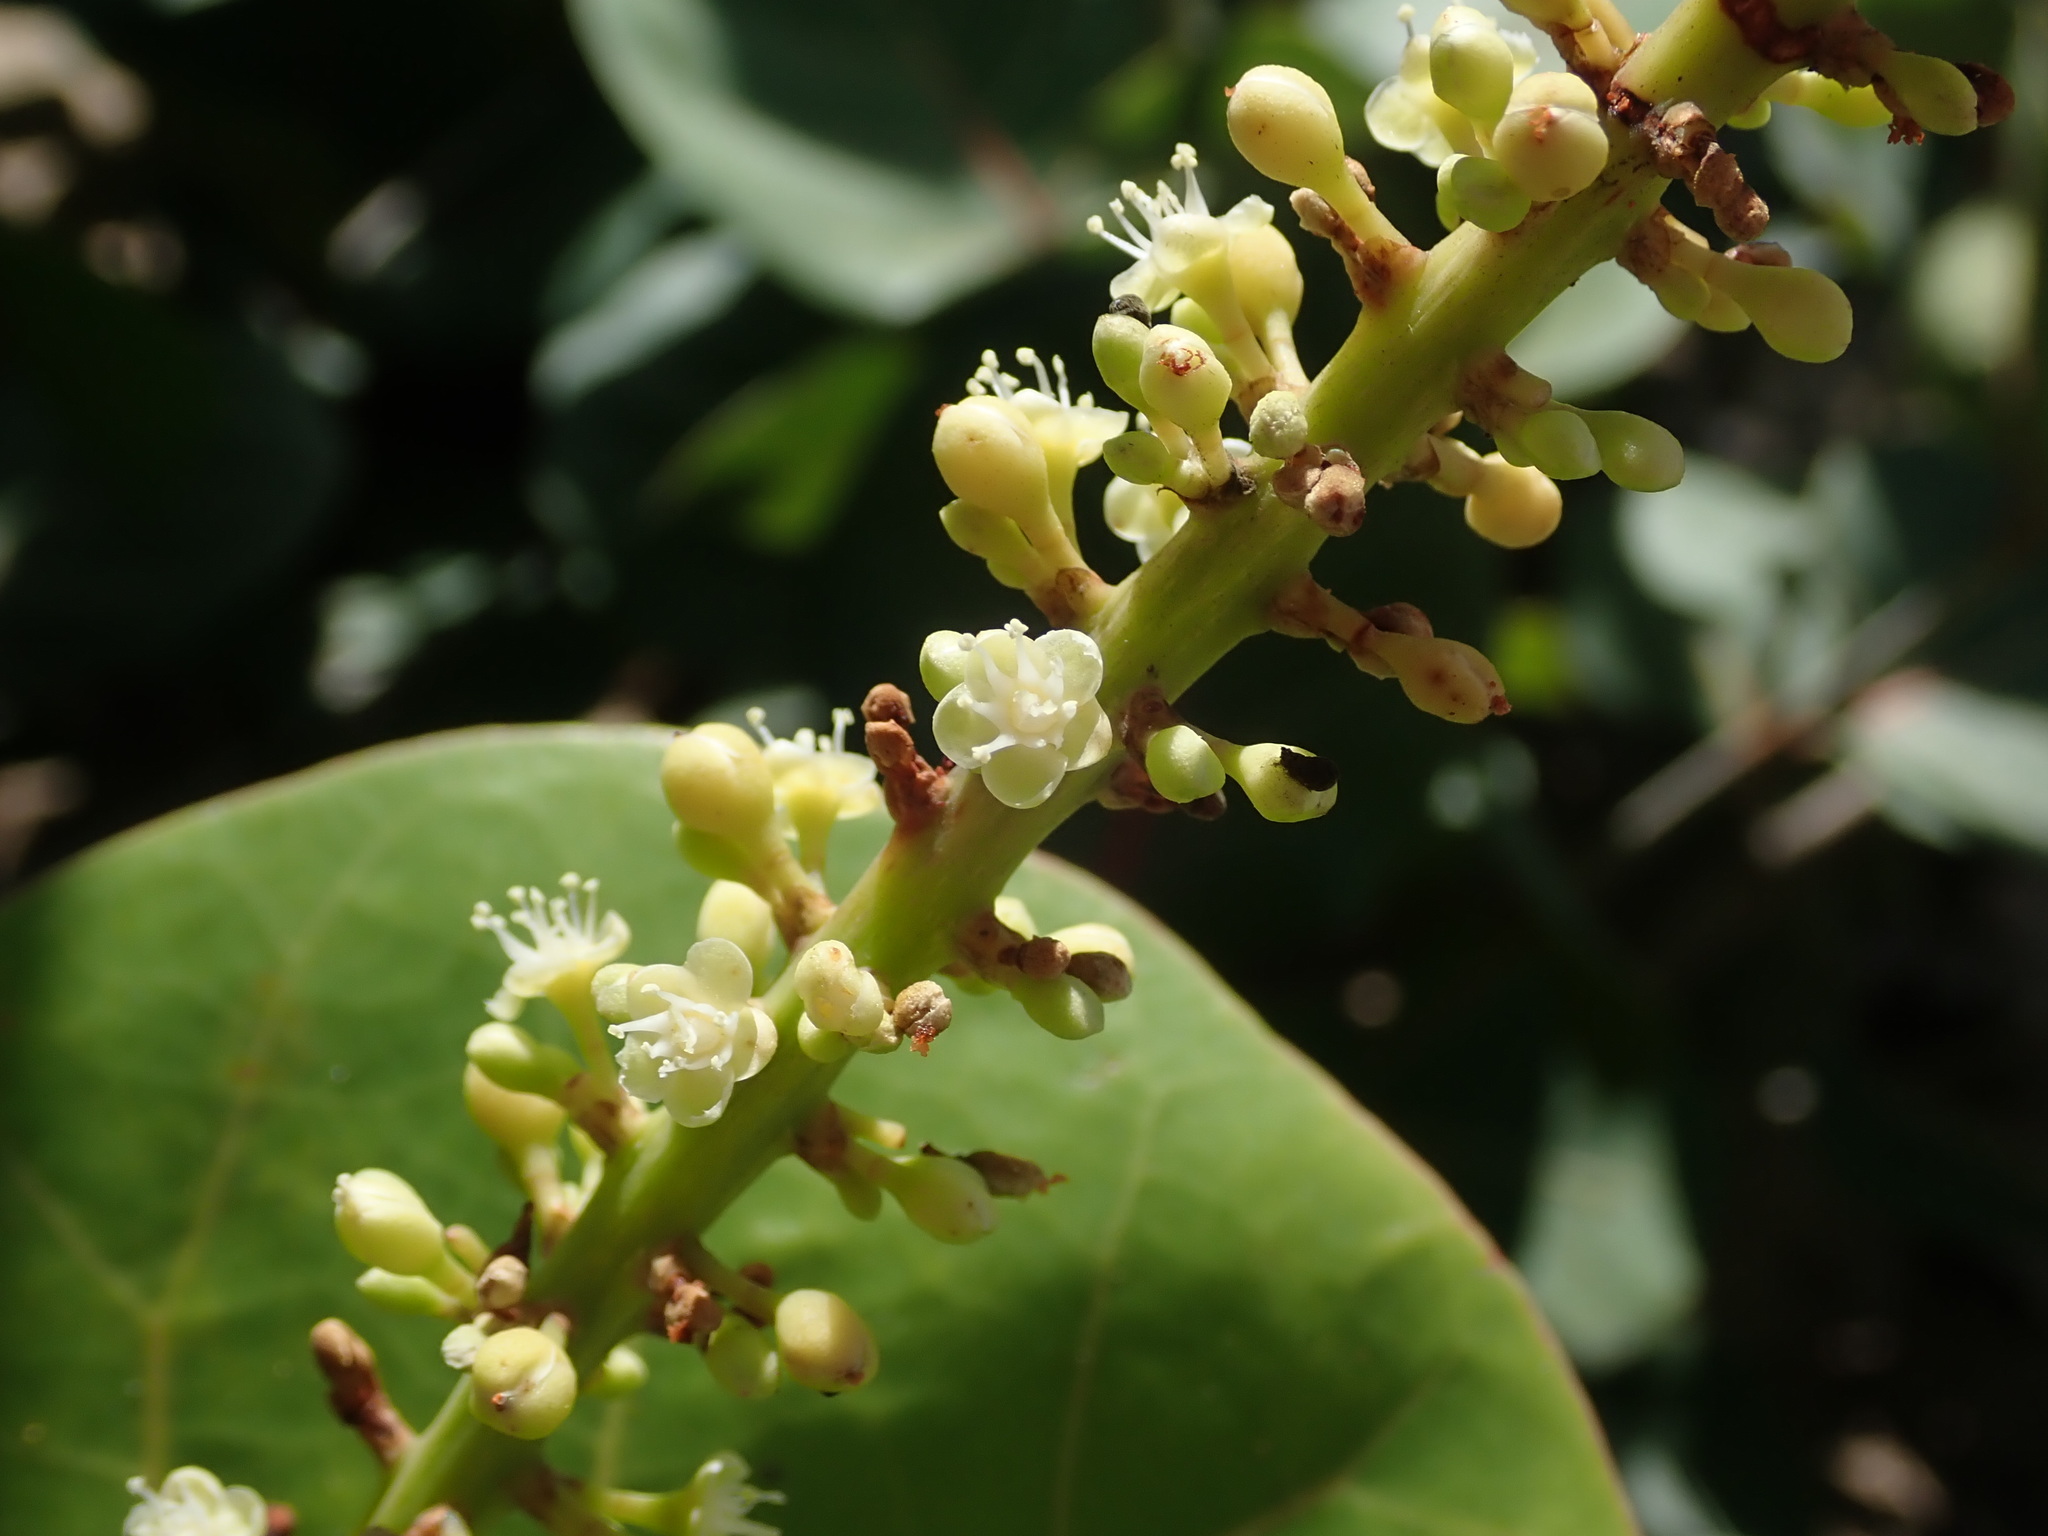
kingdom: Plantae
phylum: Tracheophyta
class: Magnoliopsida
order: Caryophyllales
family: Polygonaceae
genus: Coccoloba
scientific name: Coccoloba uvifera
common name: Seagrape
